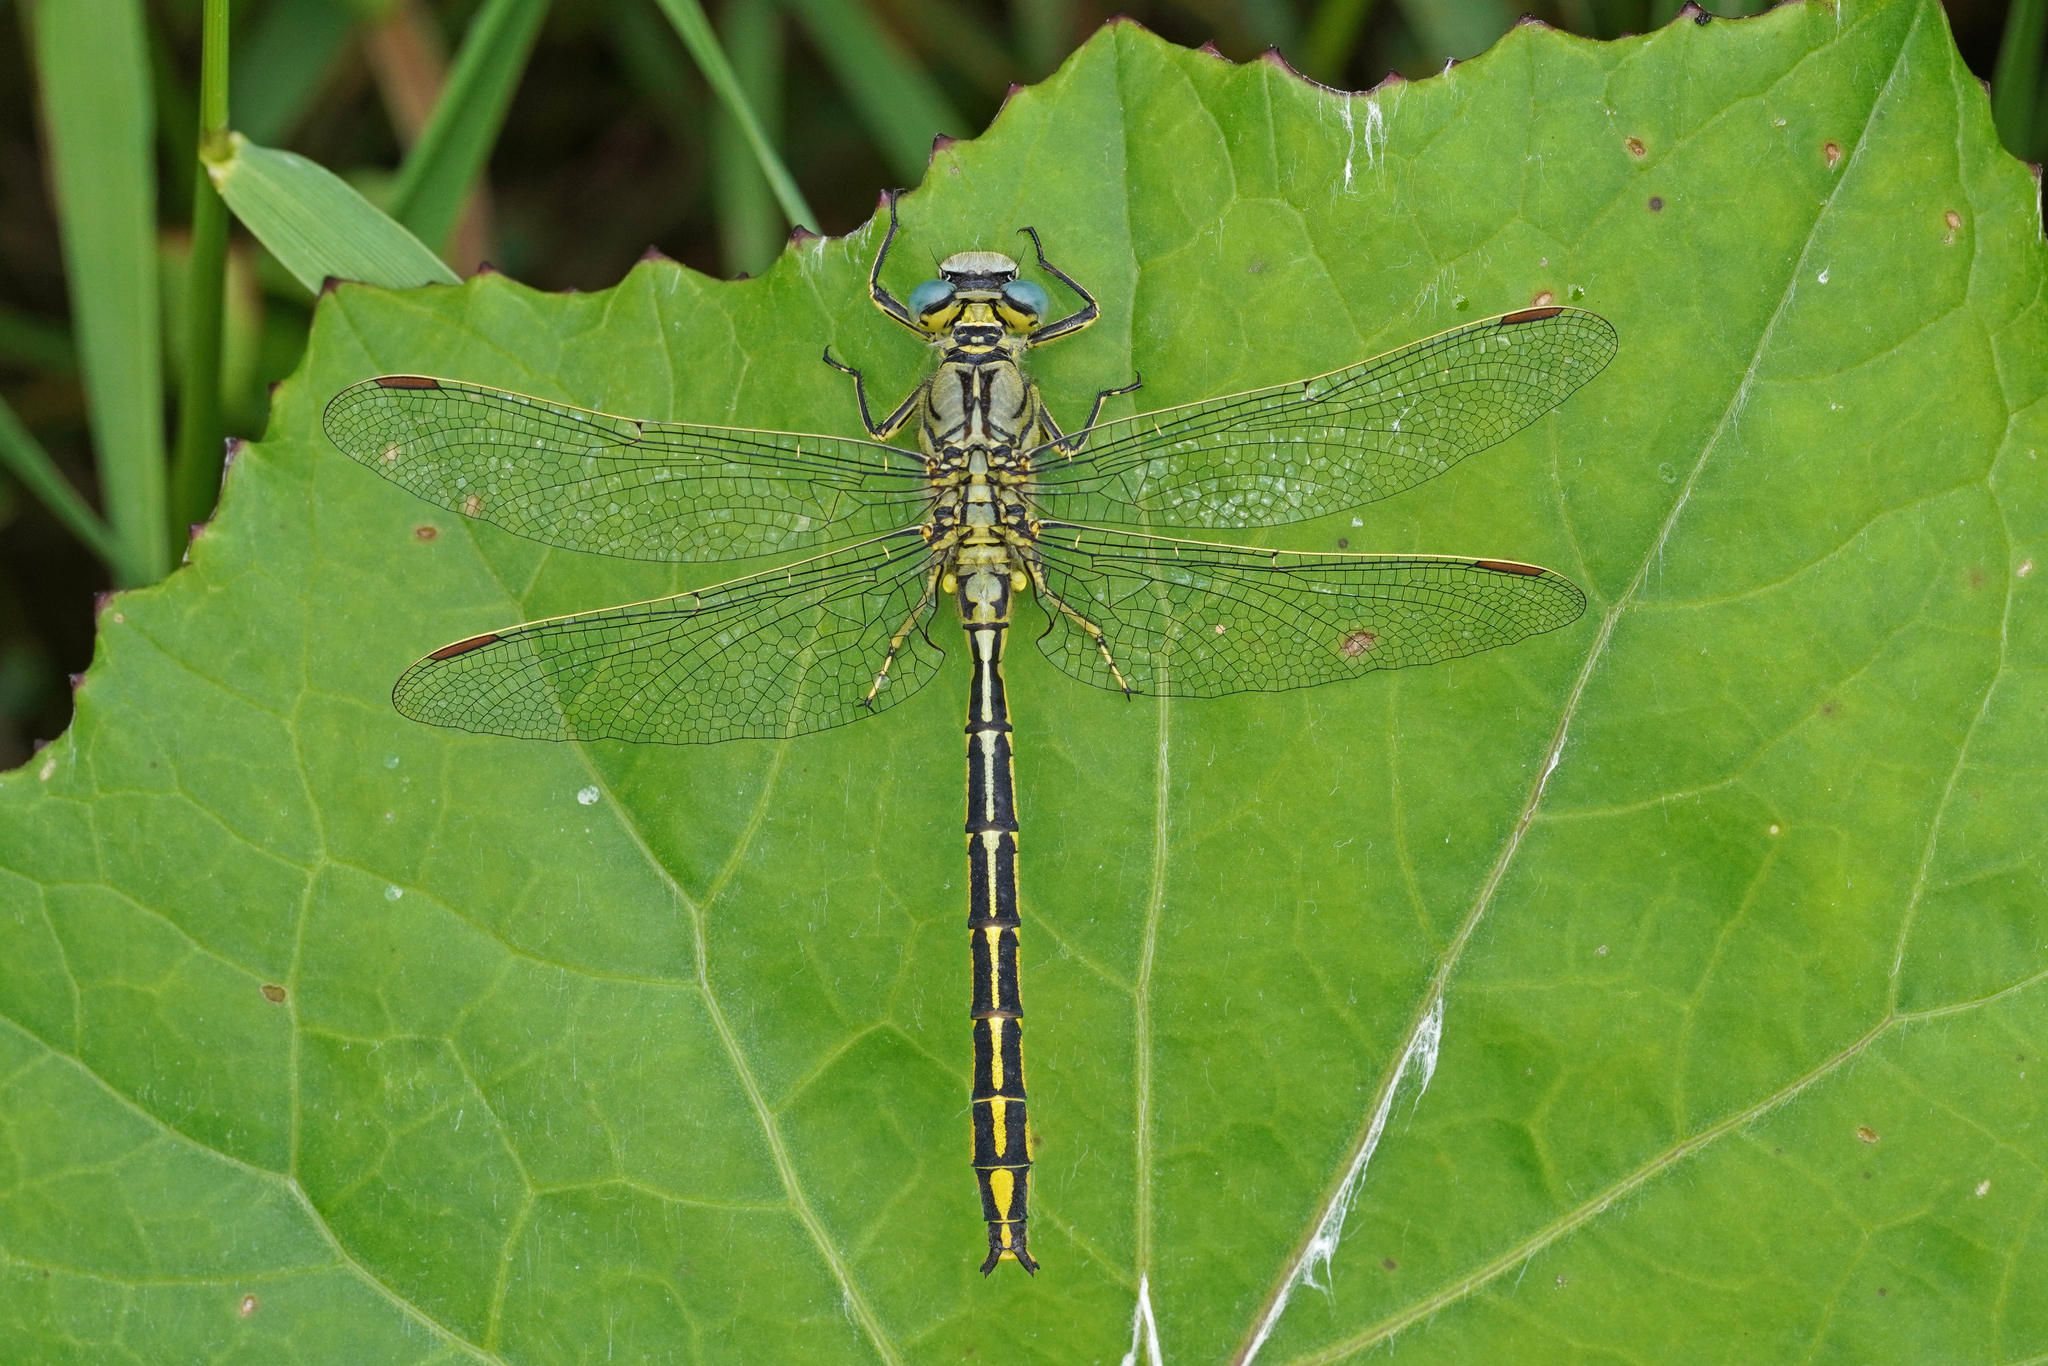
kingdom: Animalia
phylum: Arthropoda
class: Insecta
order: Odonata
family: Gomphidae
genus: Gomphus
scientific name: Gomphus pulchellus
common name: Western clubtail
